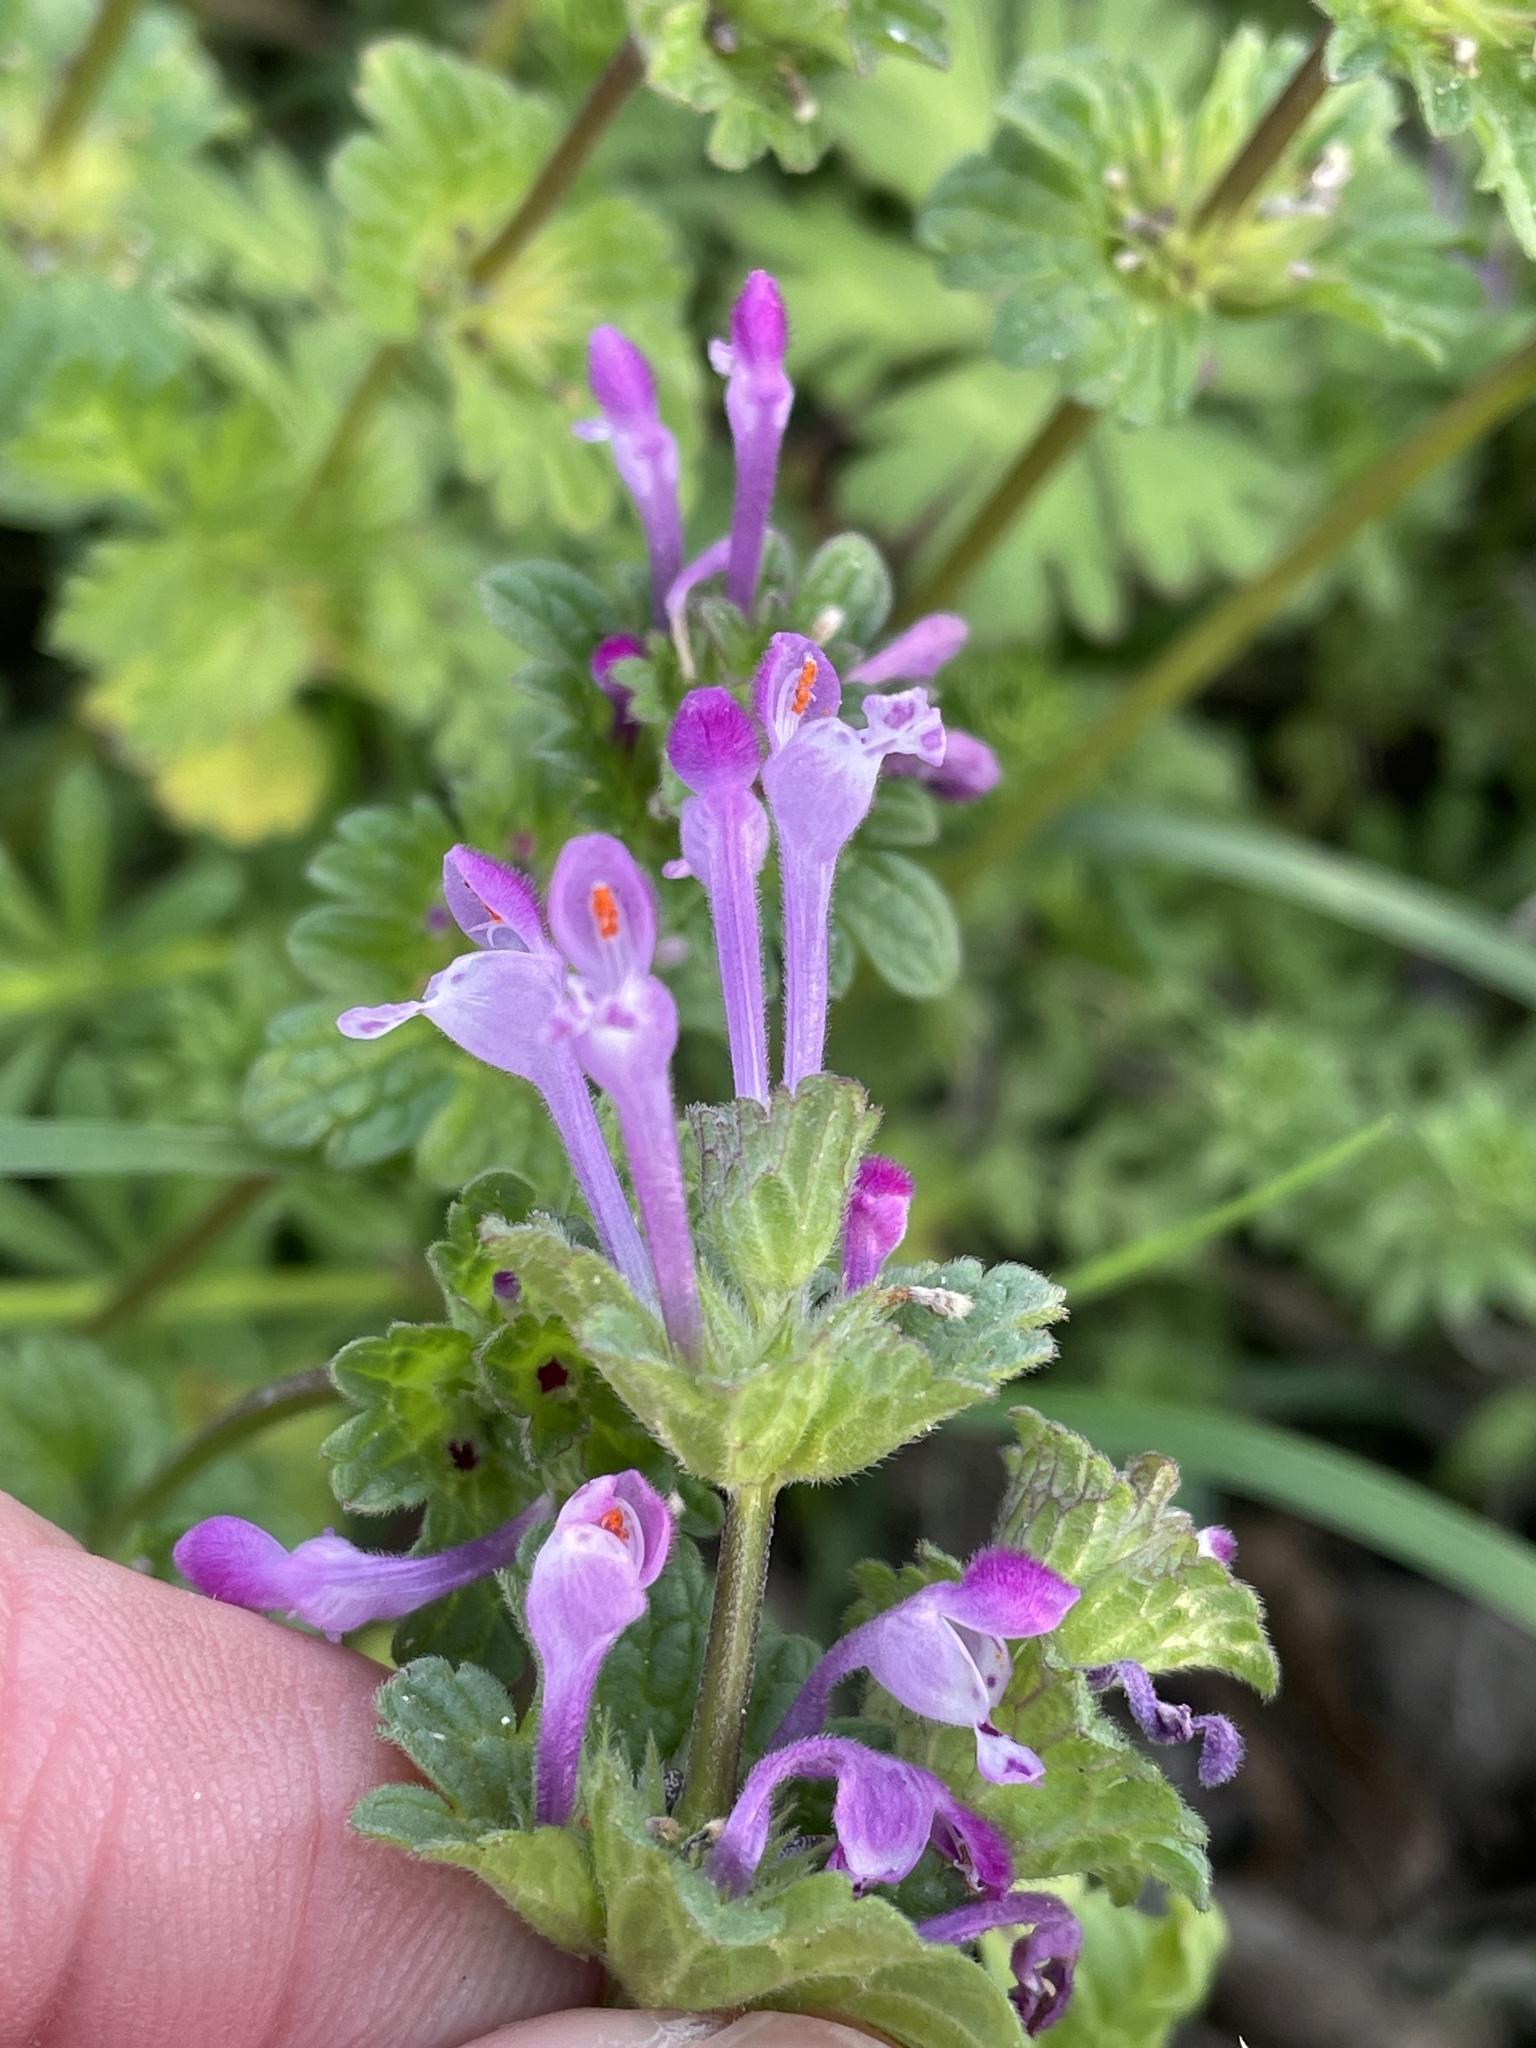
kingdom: Plantae
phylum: Tracheophyta
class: Magnoliopsida
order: Lamiales
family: Lamiaceae
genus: Lamium
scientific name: Lamium amplexicaule
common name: Henbit dead-nettle
